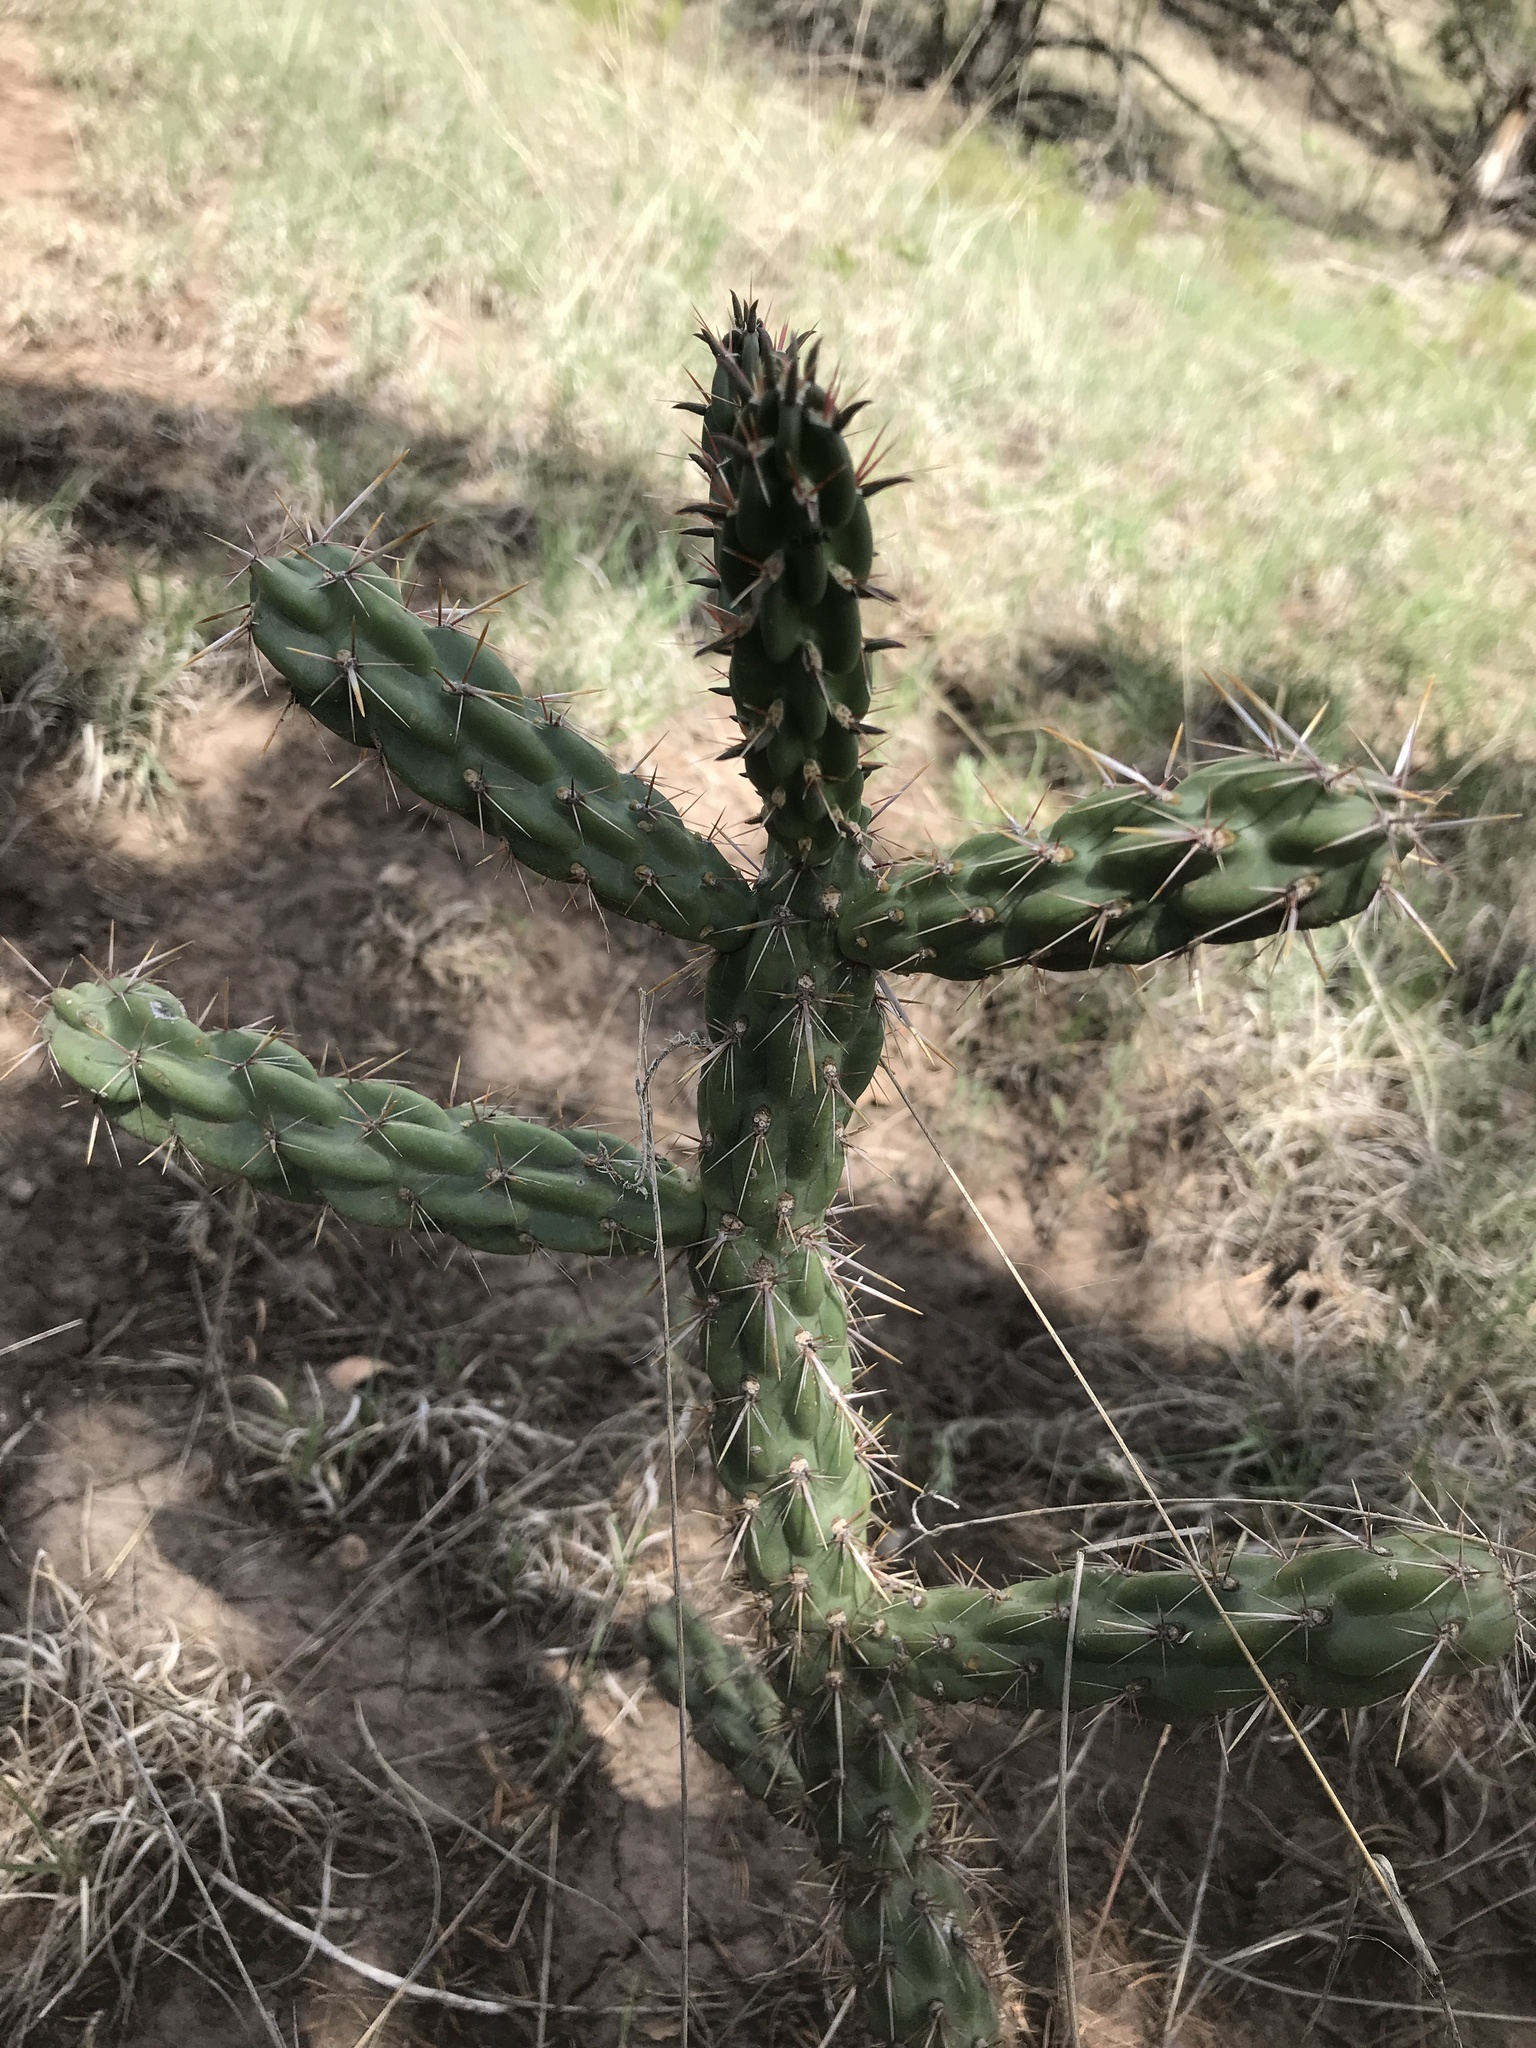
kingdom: Plantae
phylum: Tracheophyta
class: Magnoliopsida
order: Caryophyllales
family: Cactaceae
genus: Cylindropuntia
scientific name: Cylindropuntia imbricata
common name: Candelabrum cactus
